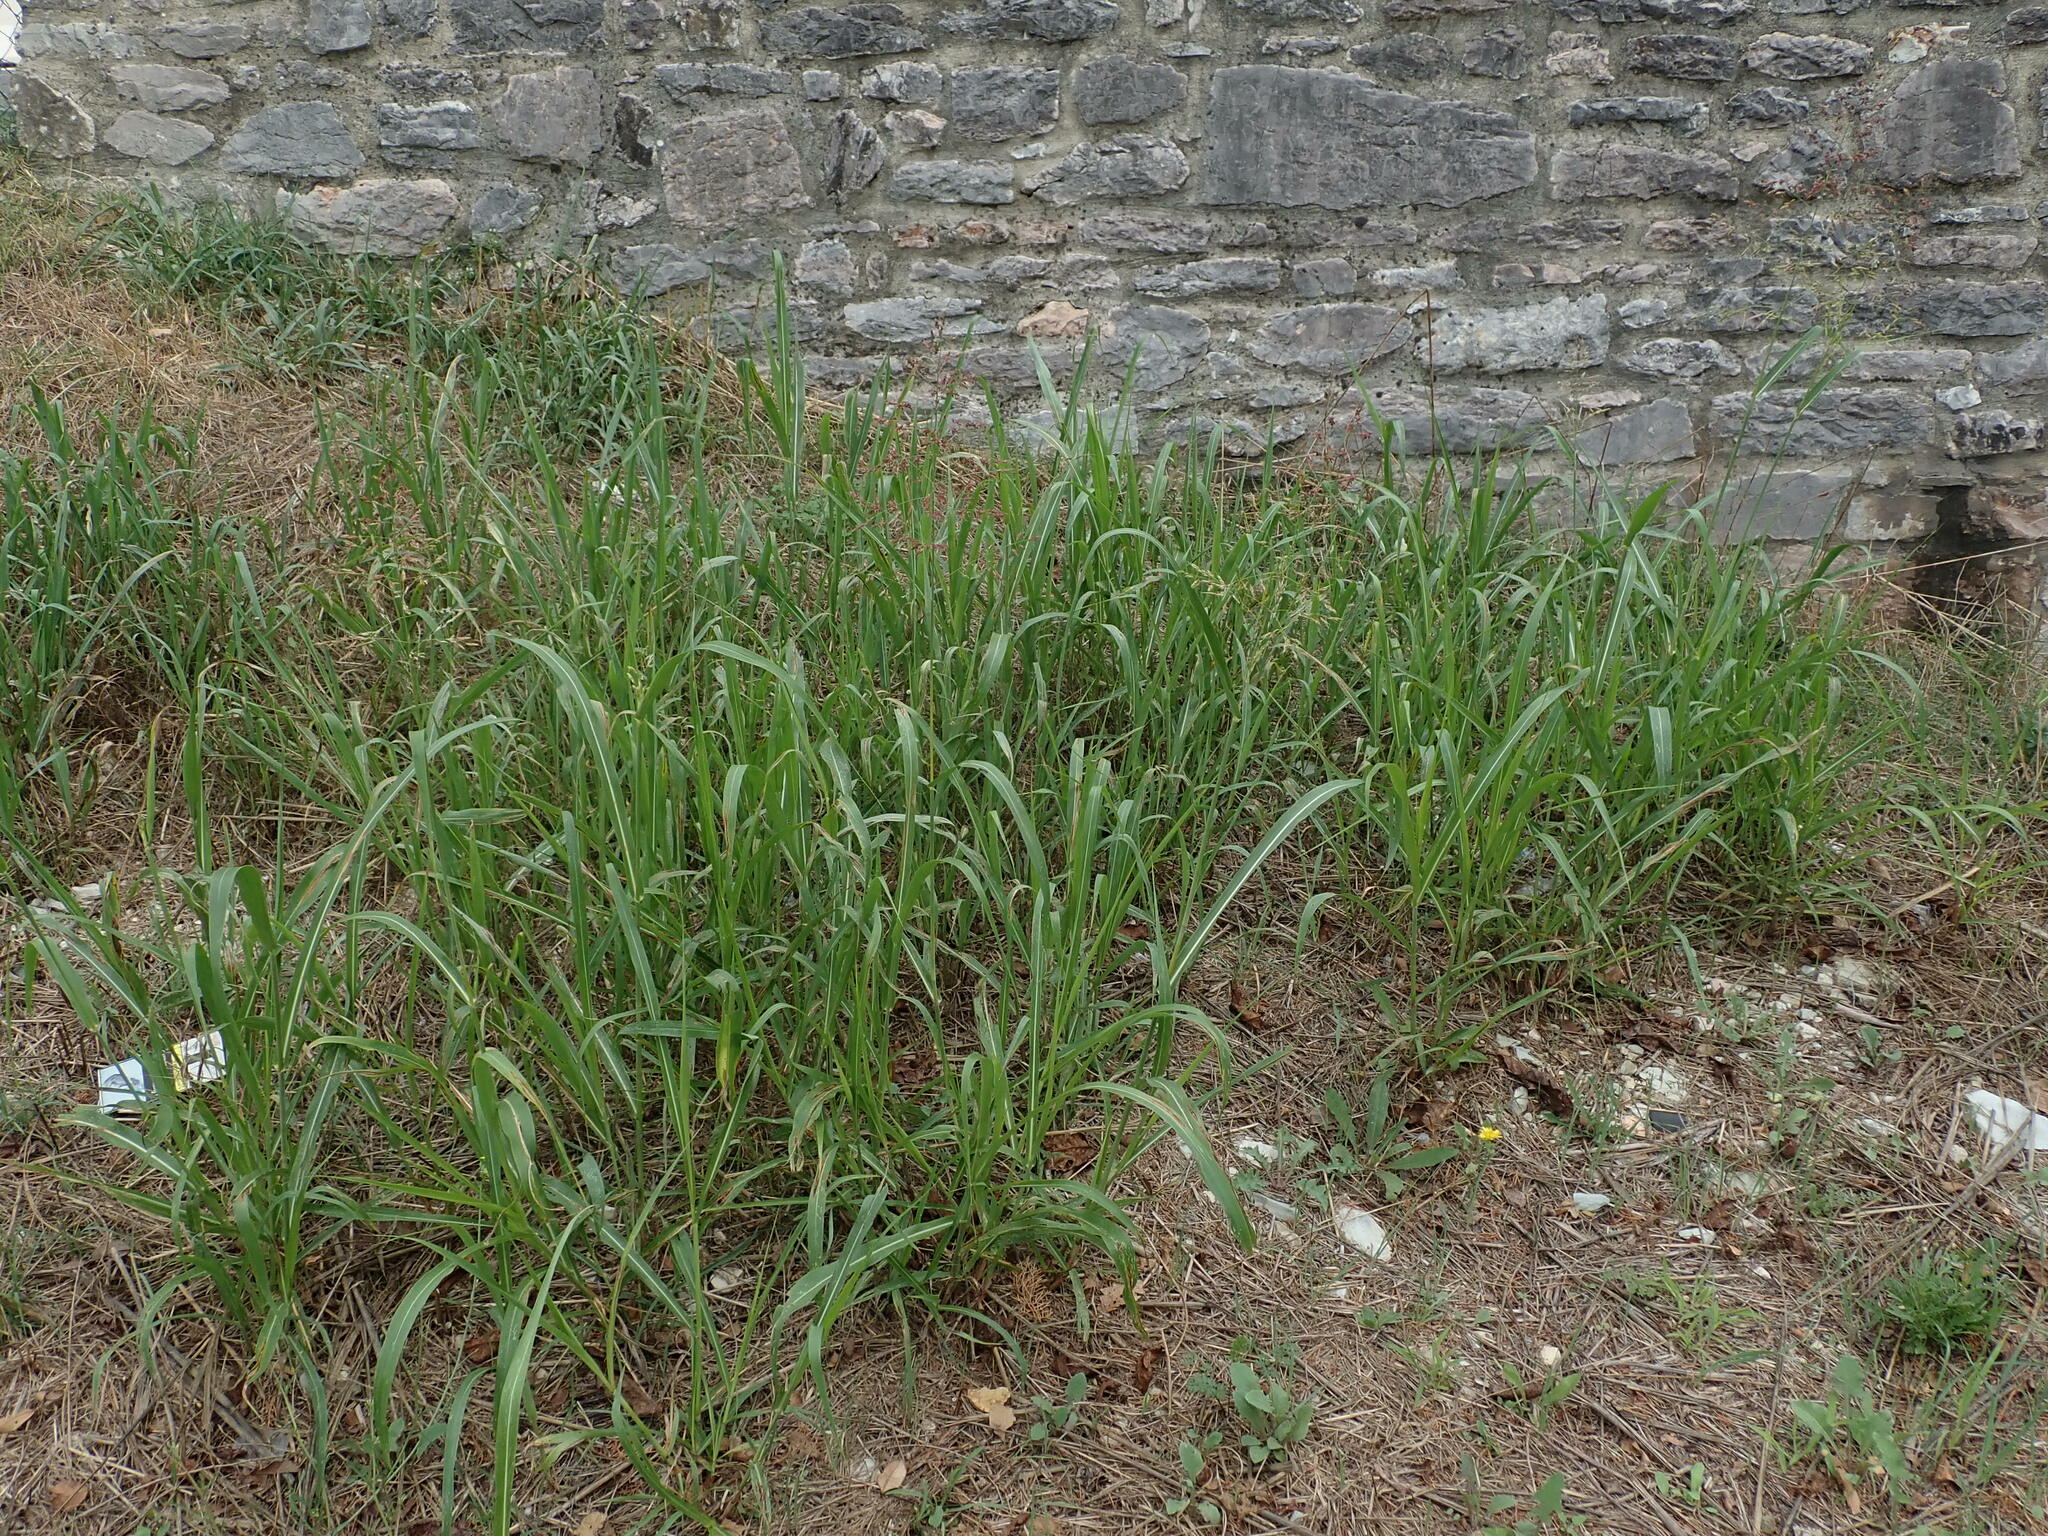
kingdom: Plantae
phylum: Tracheophyta
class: Liliopsida
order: Poales
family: Poaceae
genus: Sorghum
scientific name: Sorghum halepense
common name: Johnson-grass
